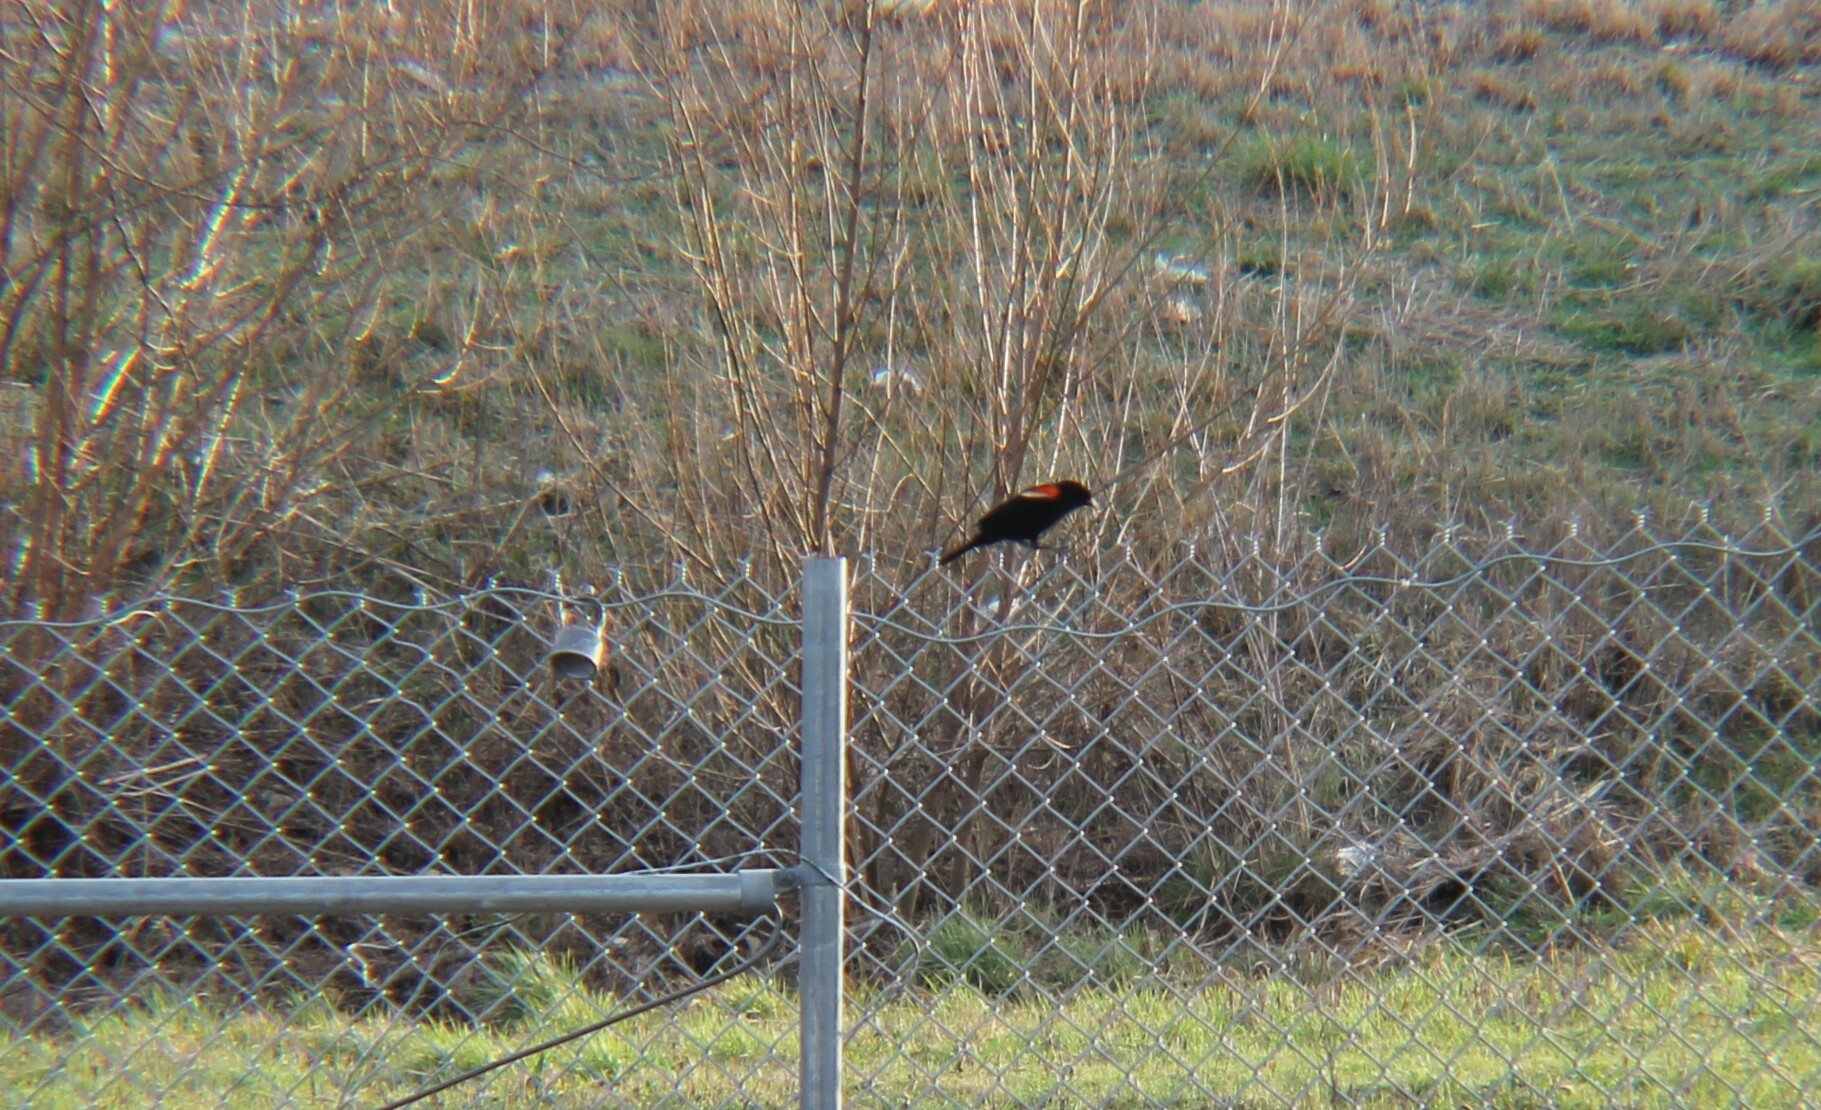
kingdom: Animalia
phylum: Chordata
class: Aves
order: Passeriformes
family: Icteridae
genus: Agelaius
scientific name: Agelaius phoeniceus
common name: Red-winged blackbird
